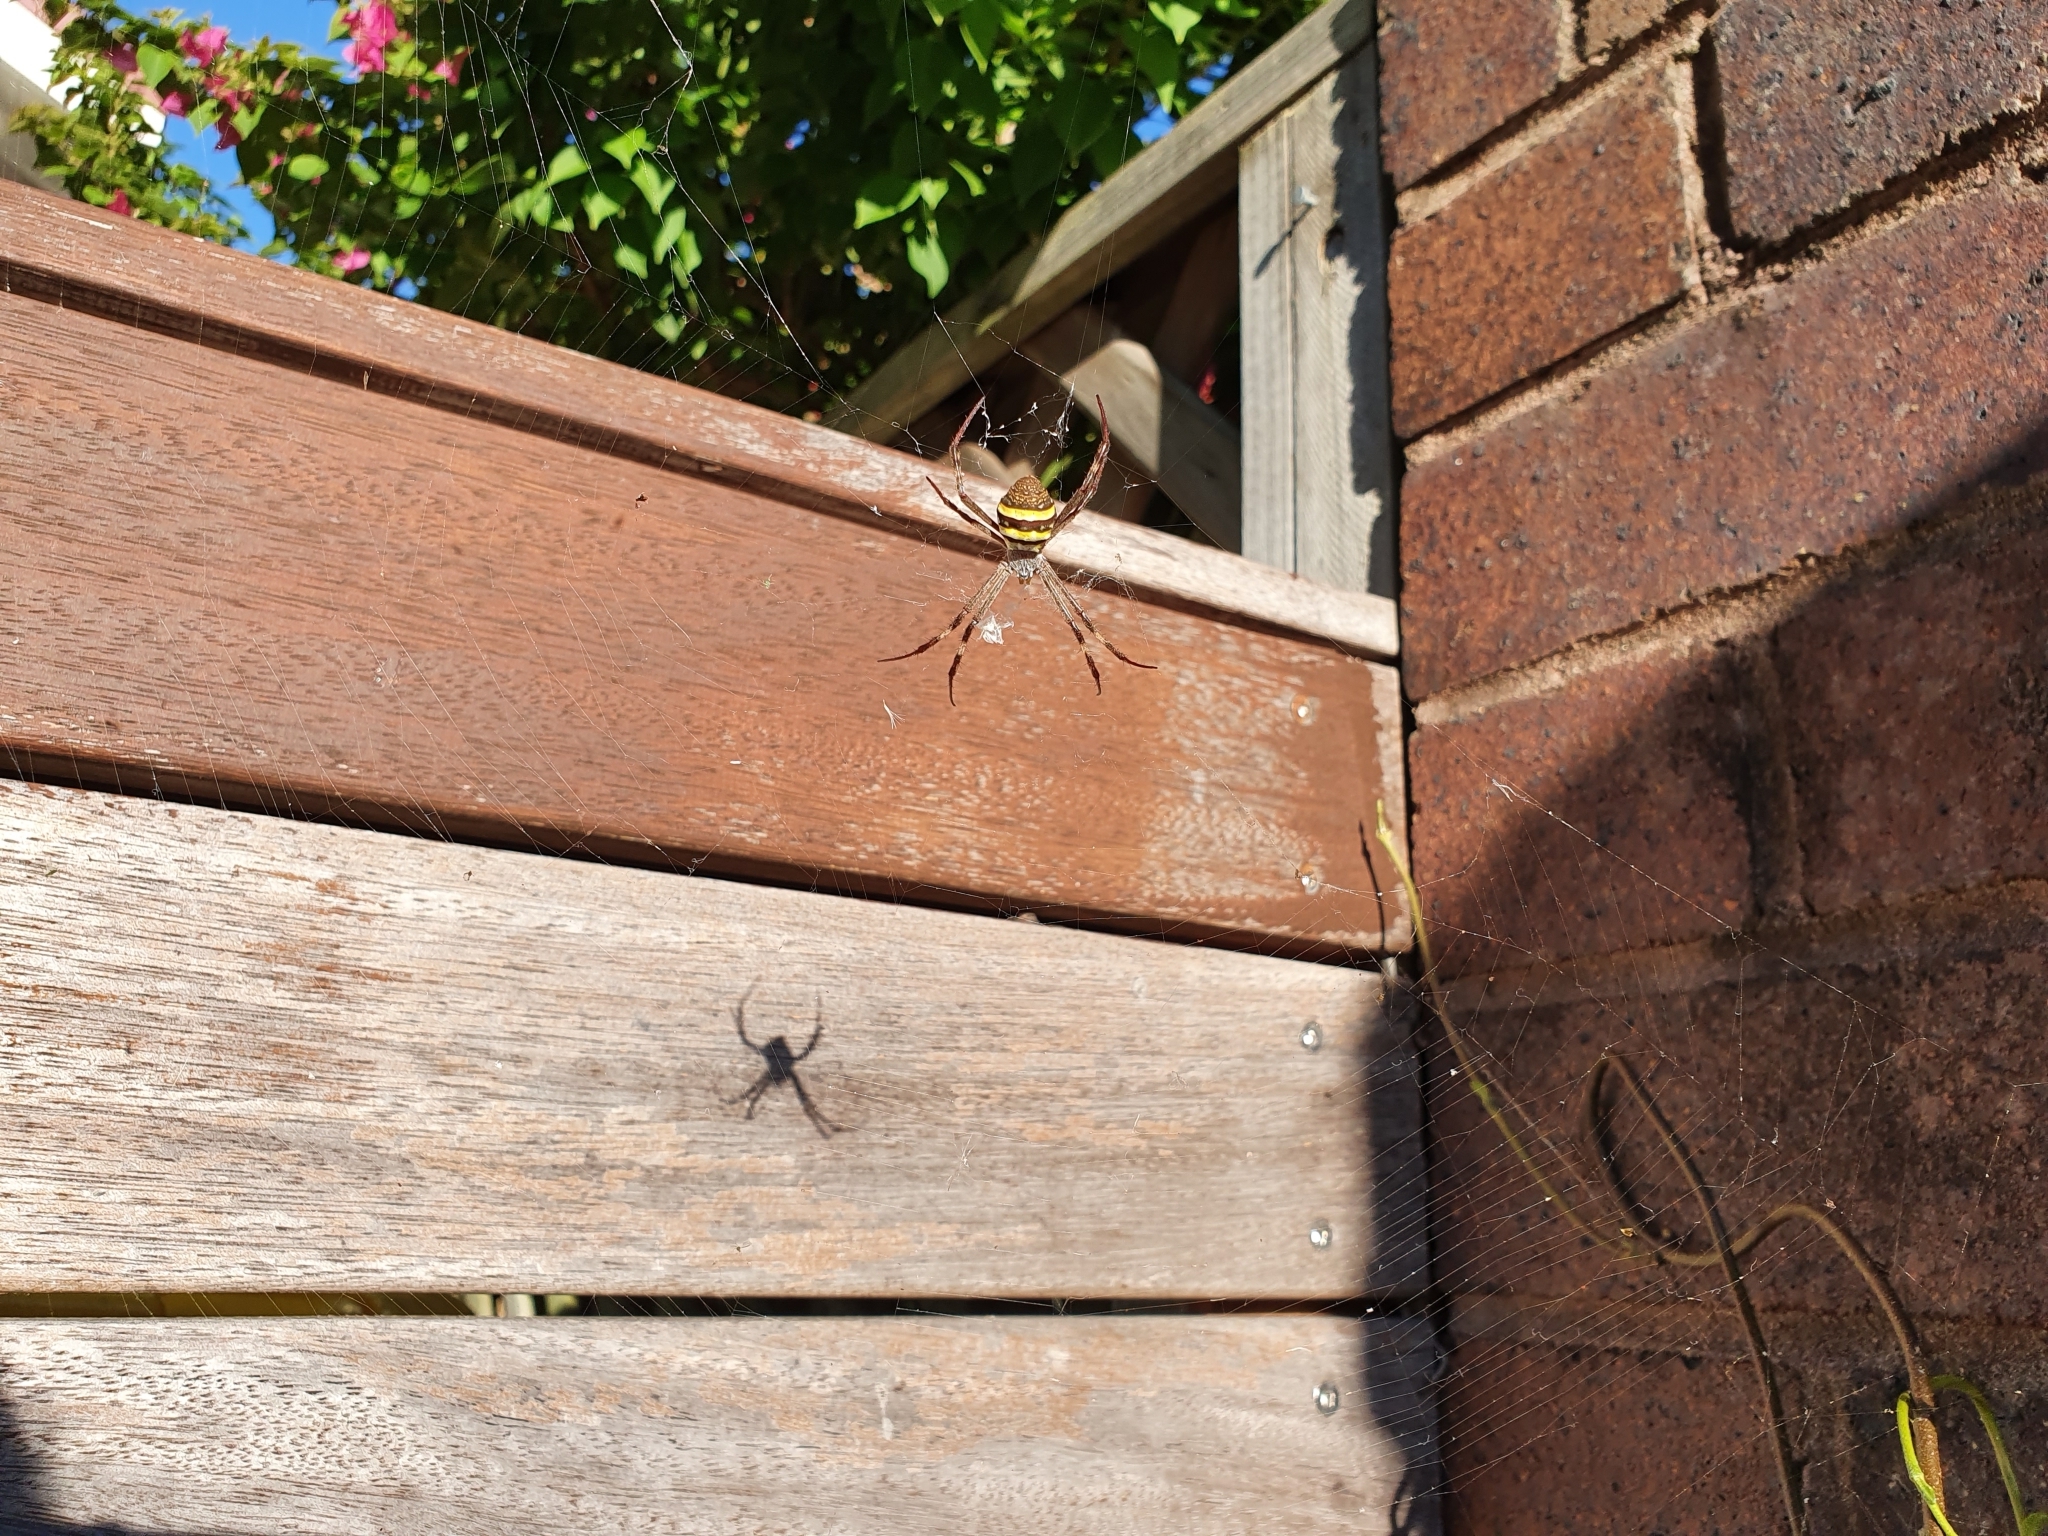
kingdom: Animalia
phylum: Arthropoda
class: Arachnida
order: Araneae
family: Araneidae
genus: Argiope
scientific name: Argiope keyserlingi
